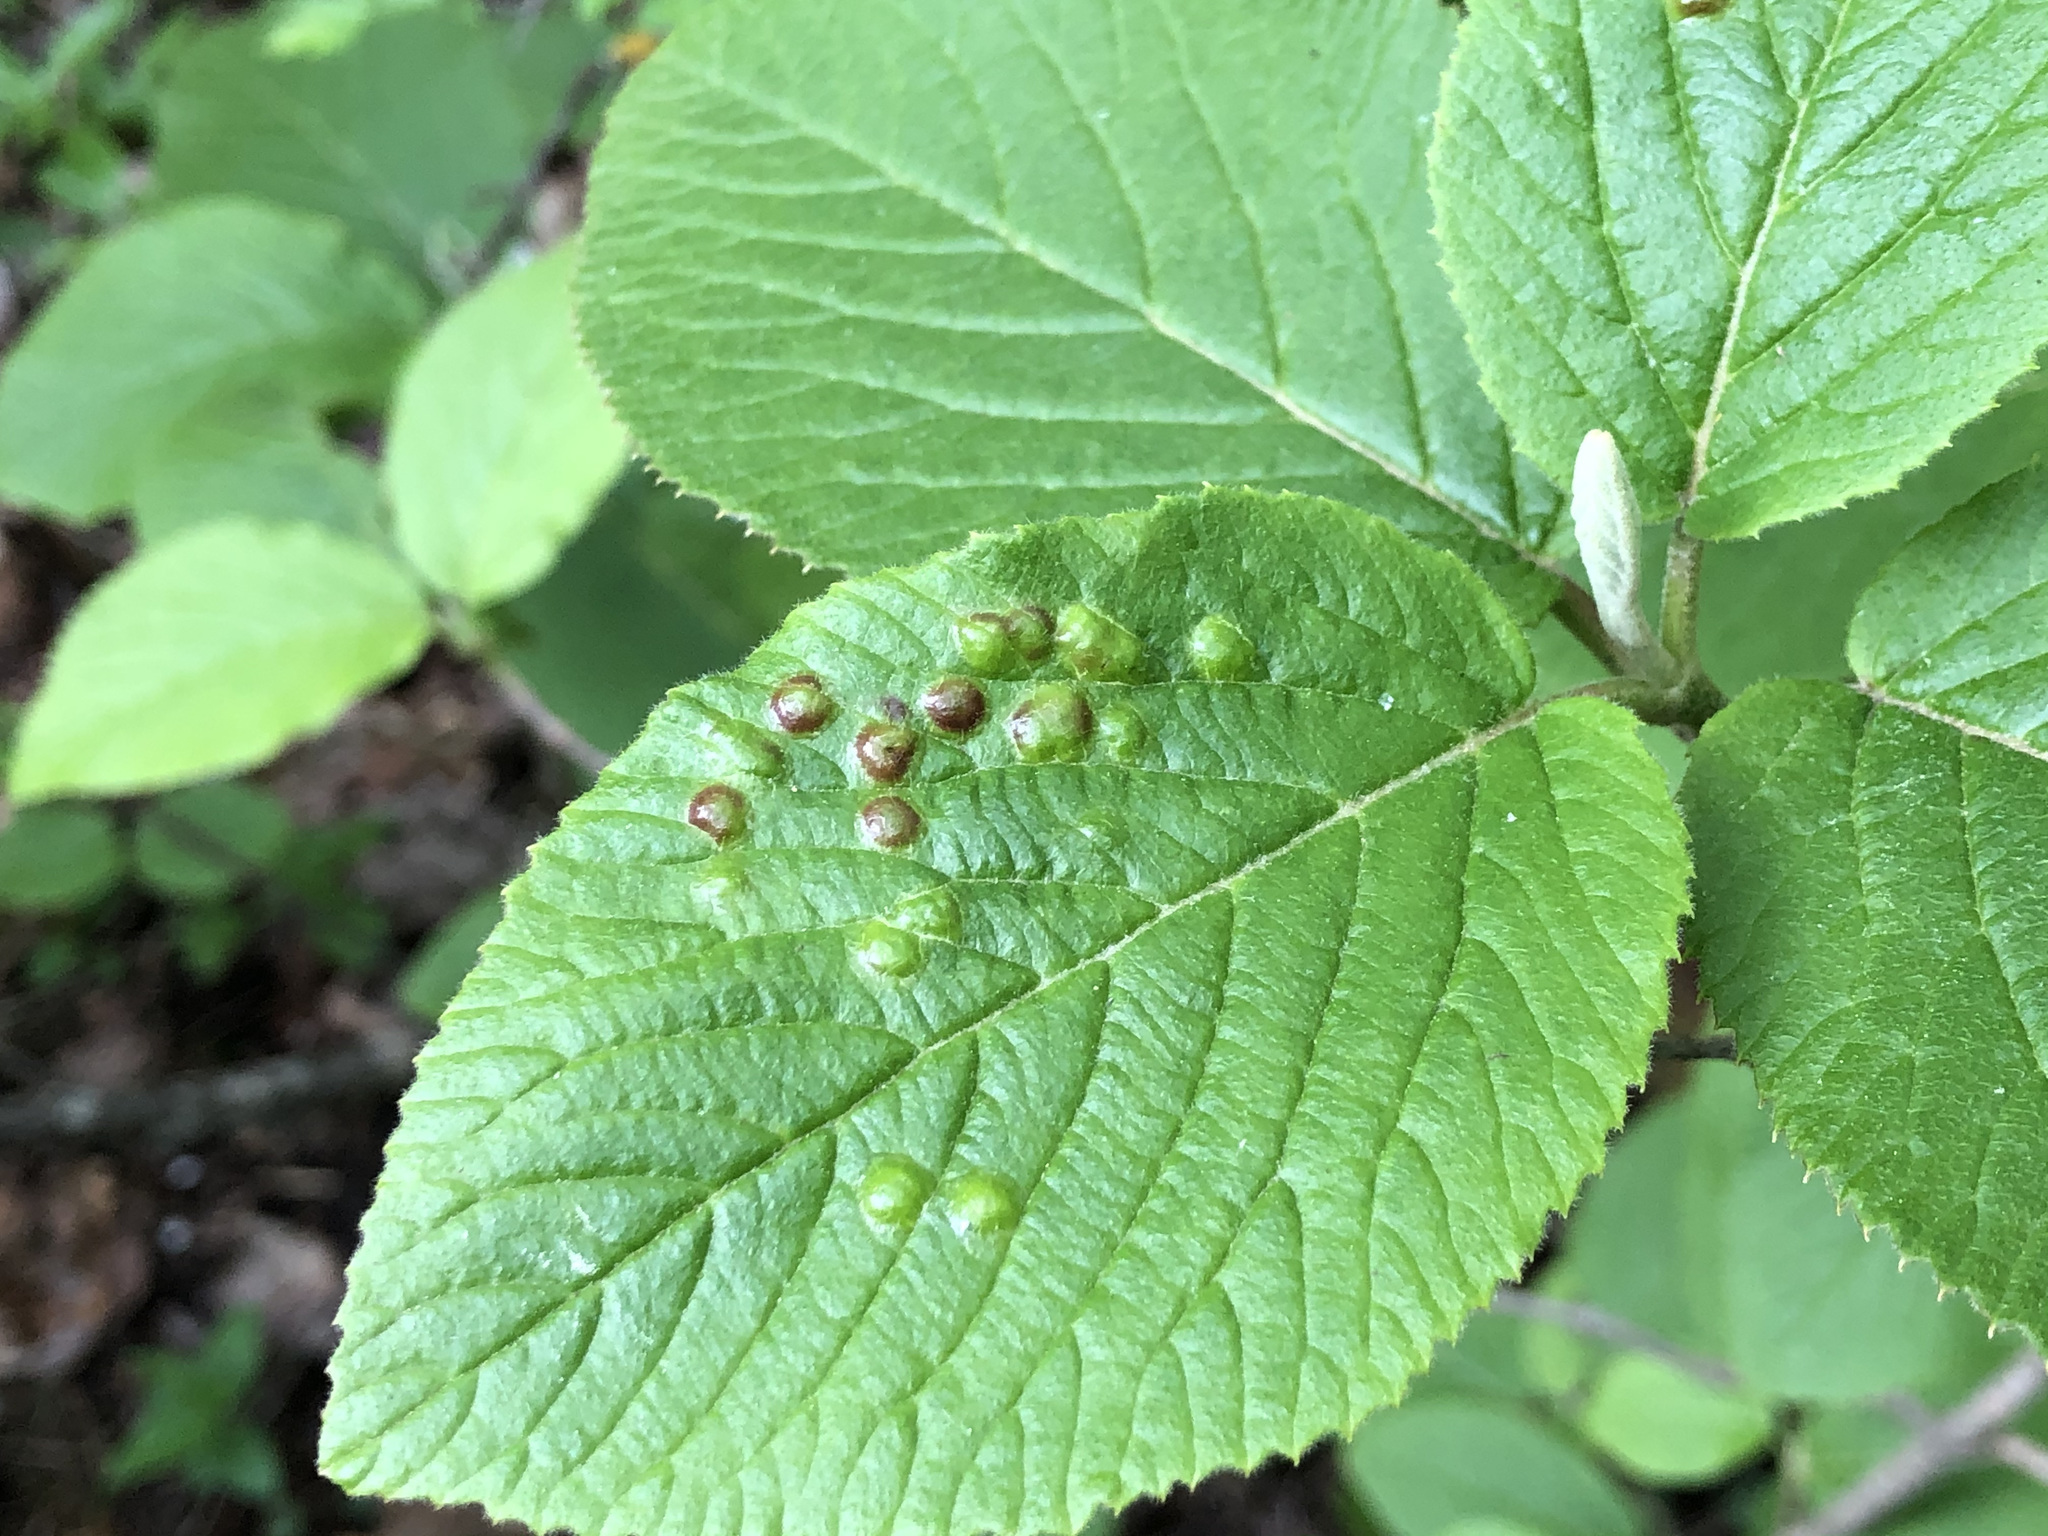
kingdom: Animalia
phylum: Arthropoda
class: Insecta
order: Diptera
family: Cecidomyiidae
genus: Sackenomyia
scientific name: Sackenomyia reaumurii
